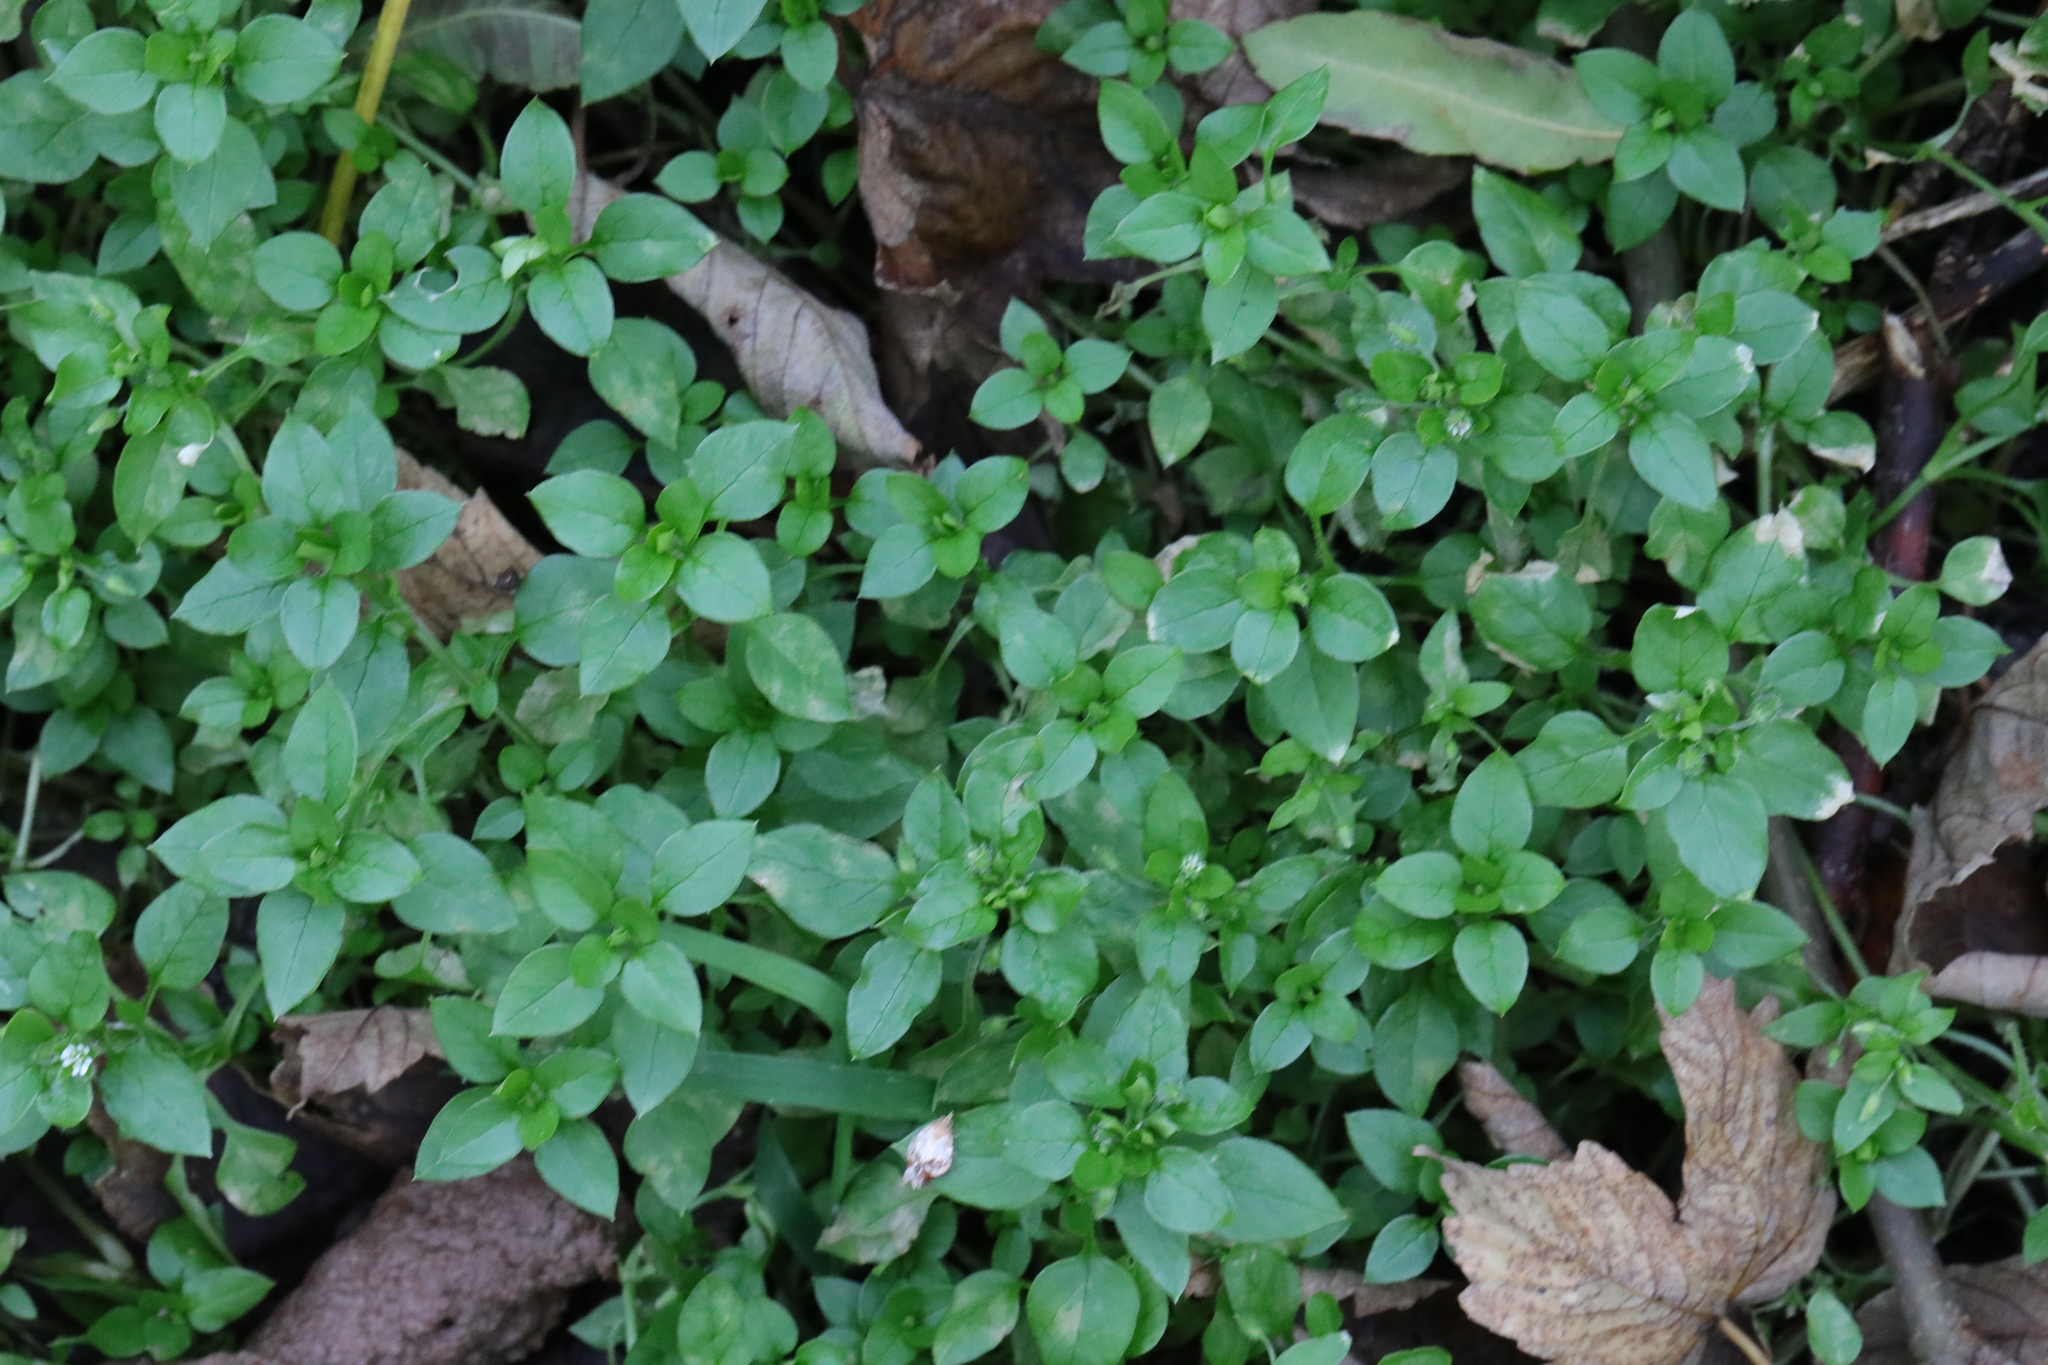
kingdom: Plantae
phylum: Tracheophyta
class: Magnoliopsida
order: Caryophyllales
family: Caryophyllaceae
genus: Stellaria
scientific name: Stellaria media
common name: Common chickweed
